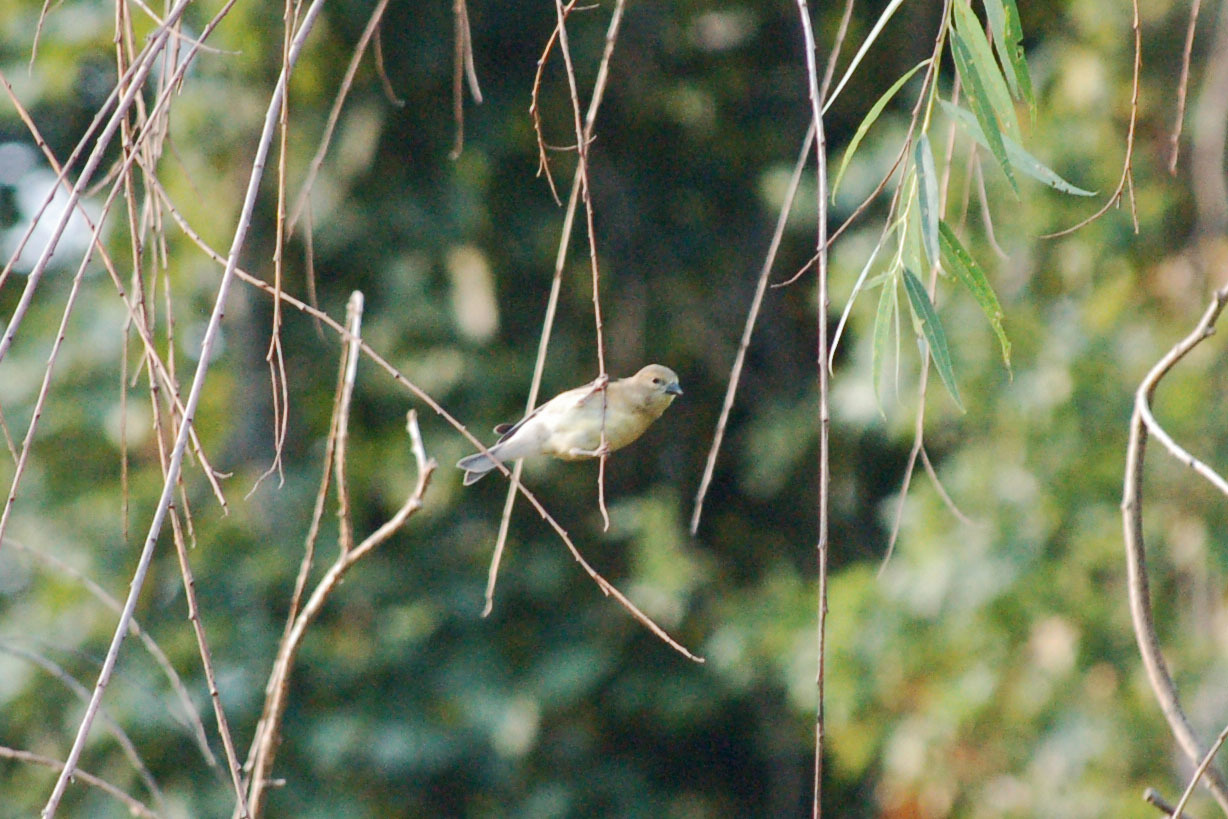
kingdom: Animalia
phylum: Chordata
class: Aves
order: Passeriformes
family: Fringillidae
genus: Spinus
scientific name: Spinus tristis
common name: American goldfinch
